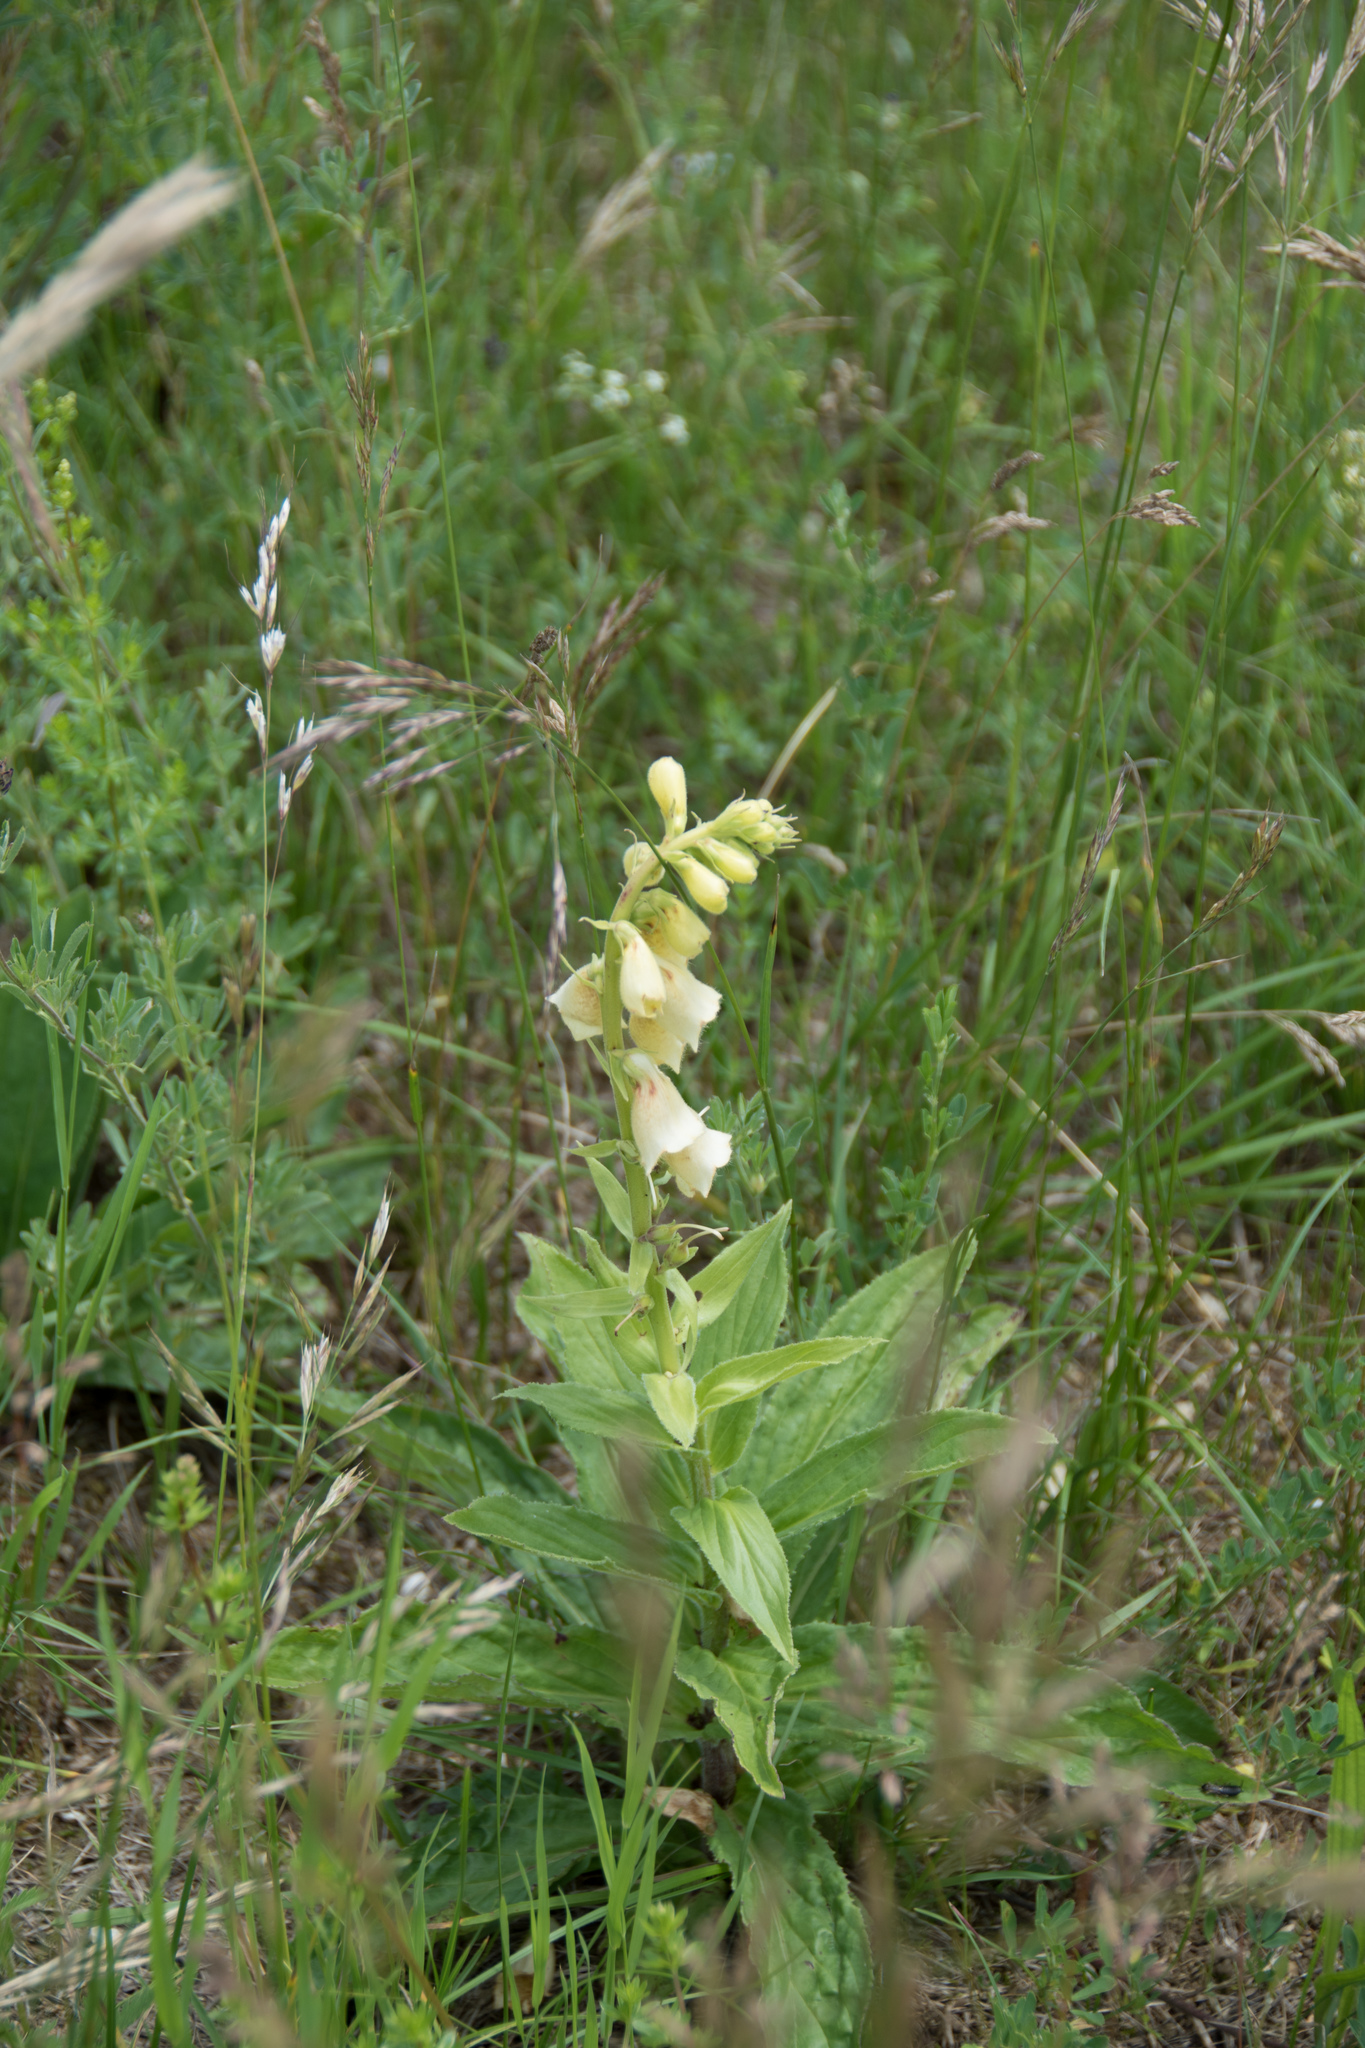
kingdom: Plantae
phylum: Tracheophyta
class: Magnoliopsida
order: Lamiales
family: Plantaginaceae
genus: Digitalis
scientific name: Digitalis grandiflora
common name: Yellow foxglove
